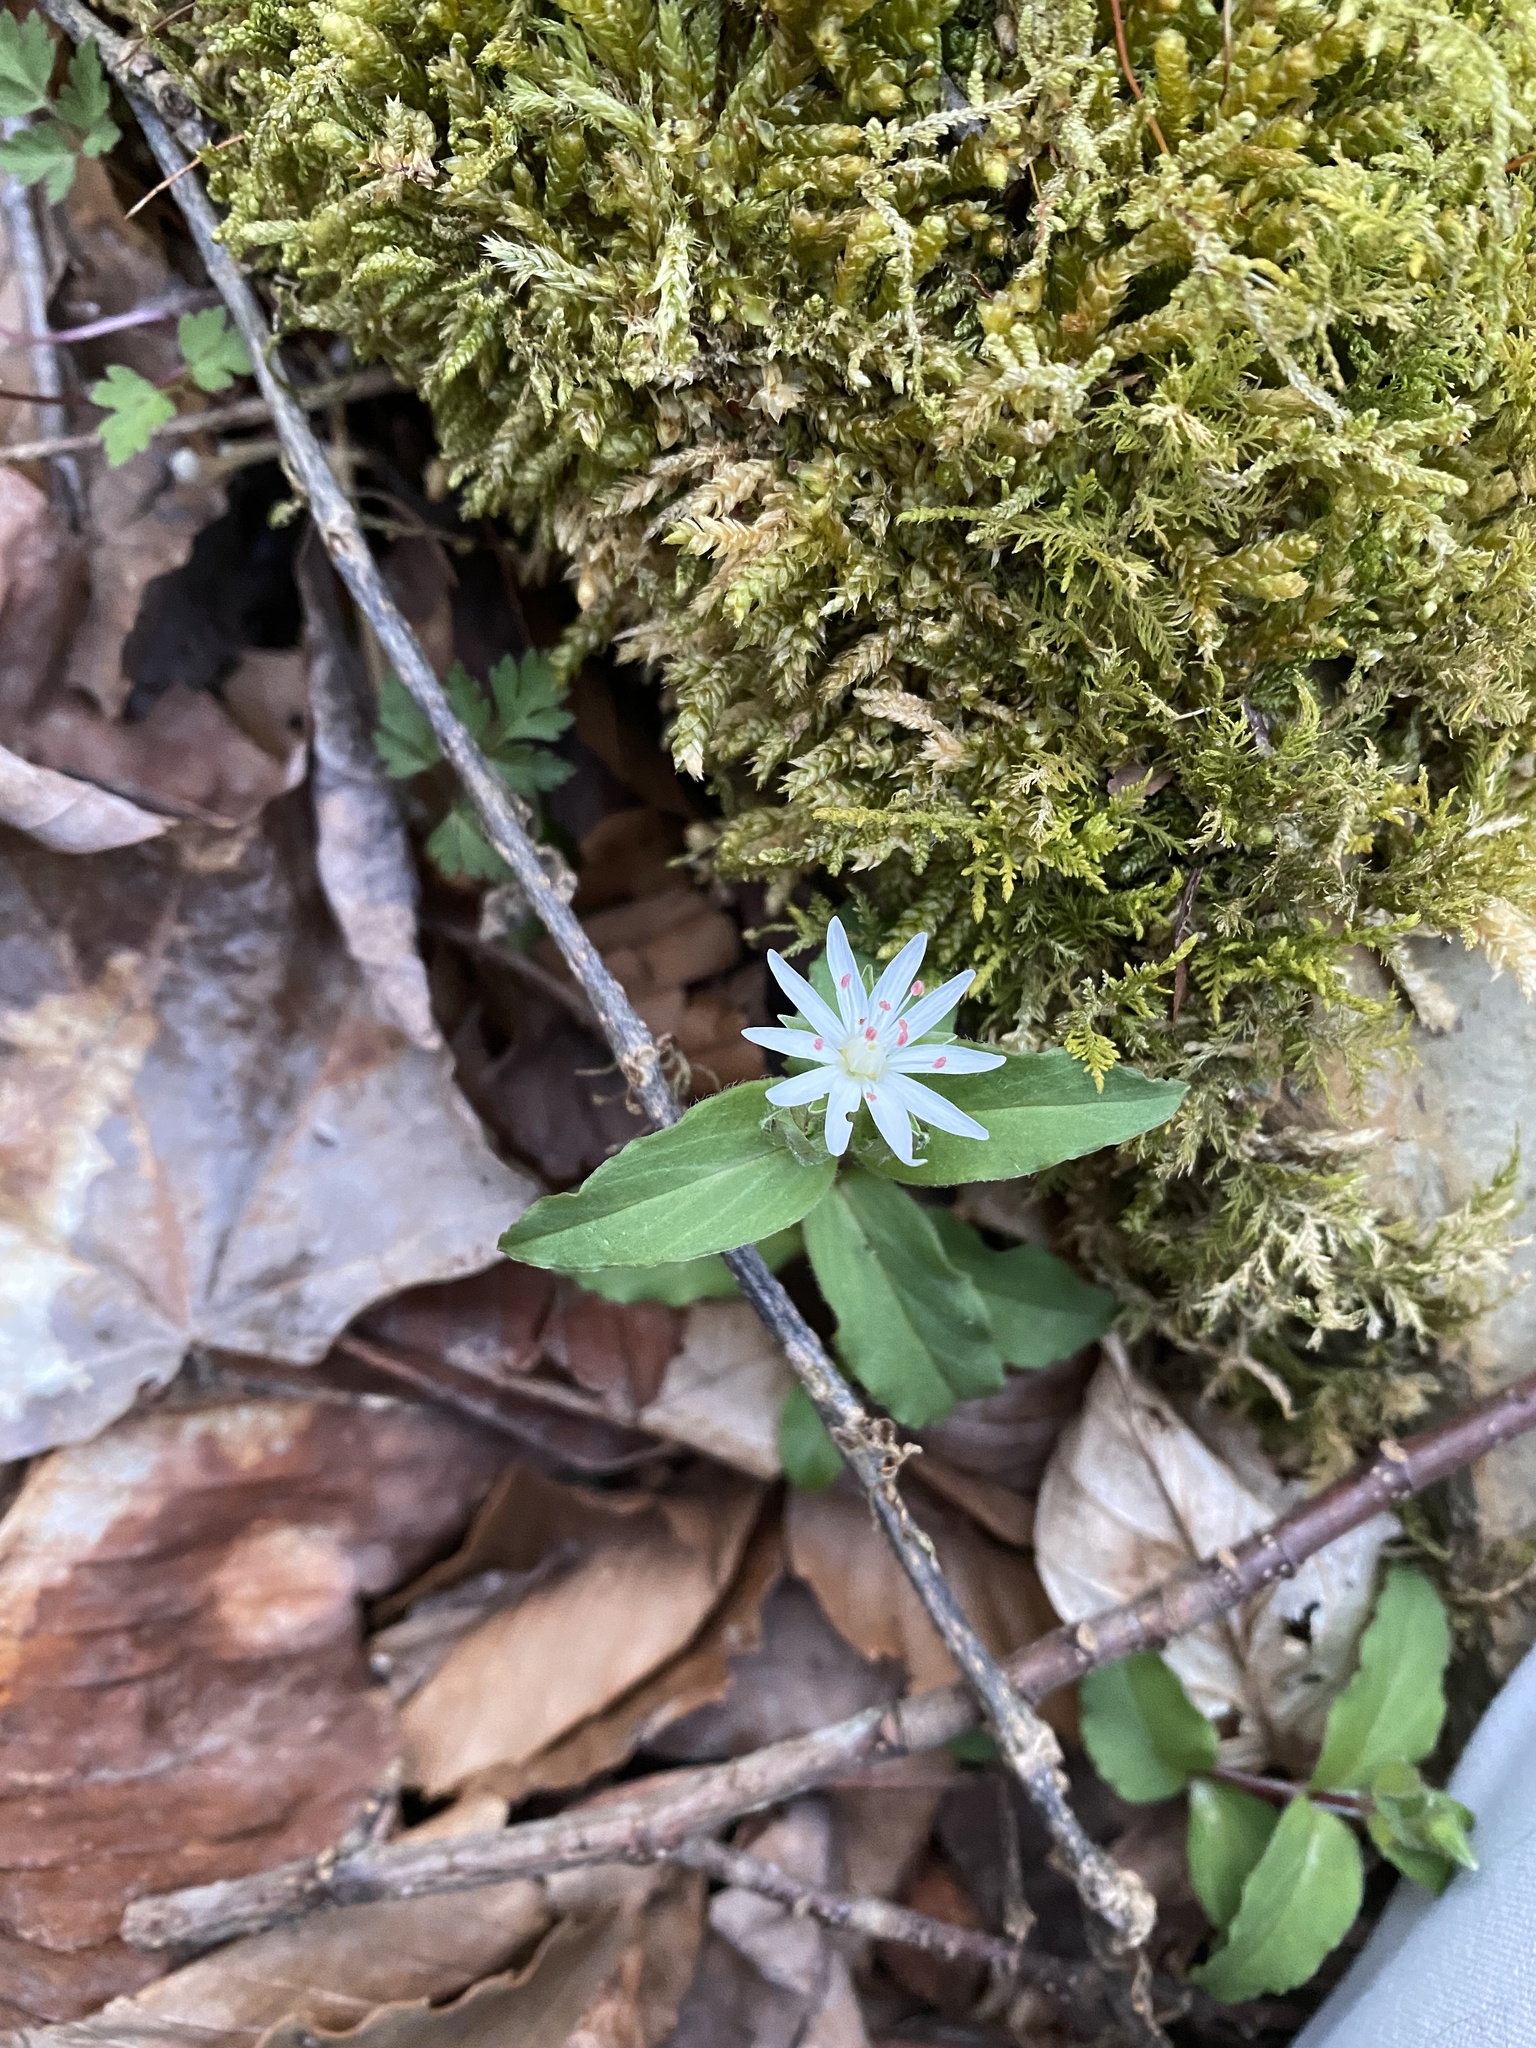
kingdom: Plantae
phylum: Tracheophyta
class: Magnoliopsida
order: Caryophyllales
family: Caryophyllaceae
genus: Stellaria
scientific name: Stellaria pubera
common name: Star chickweed
